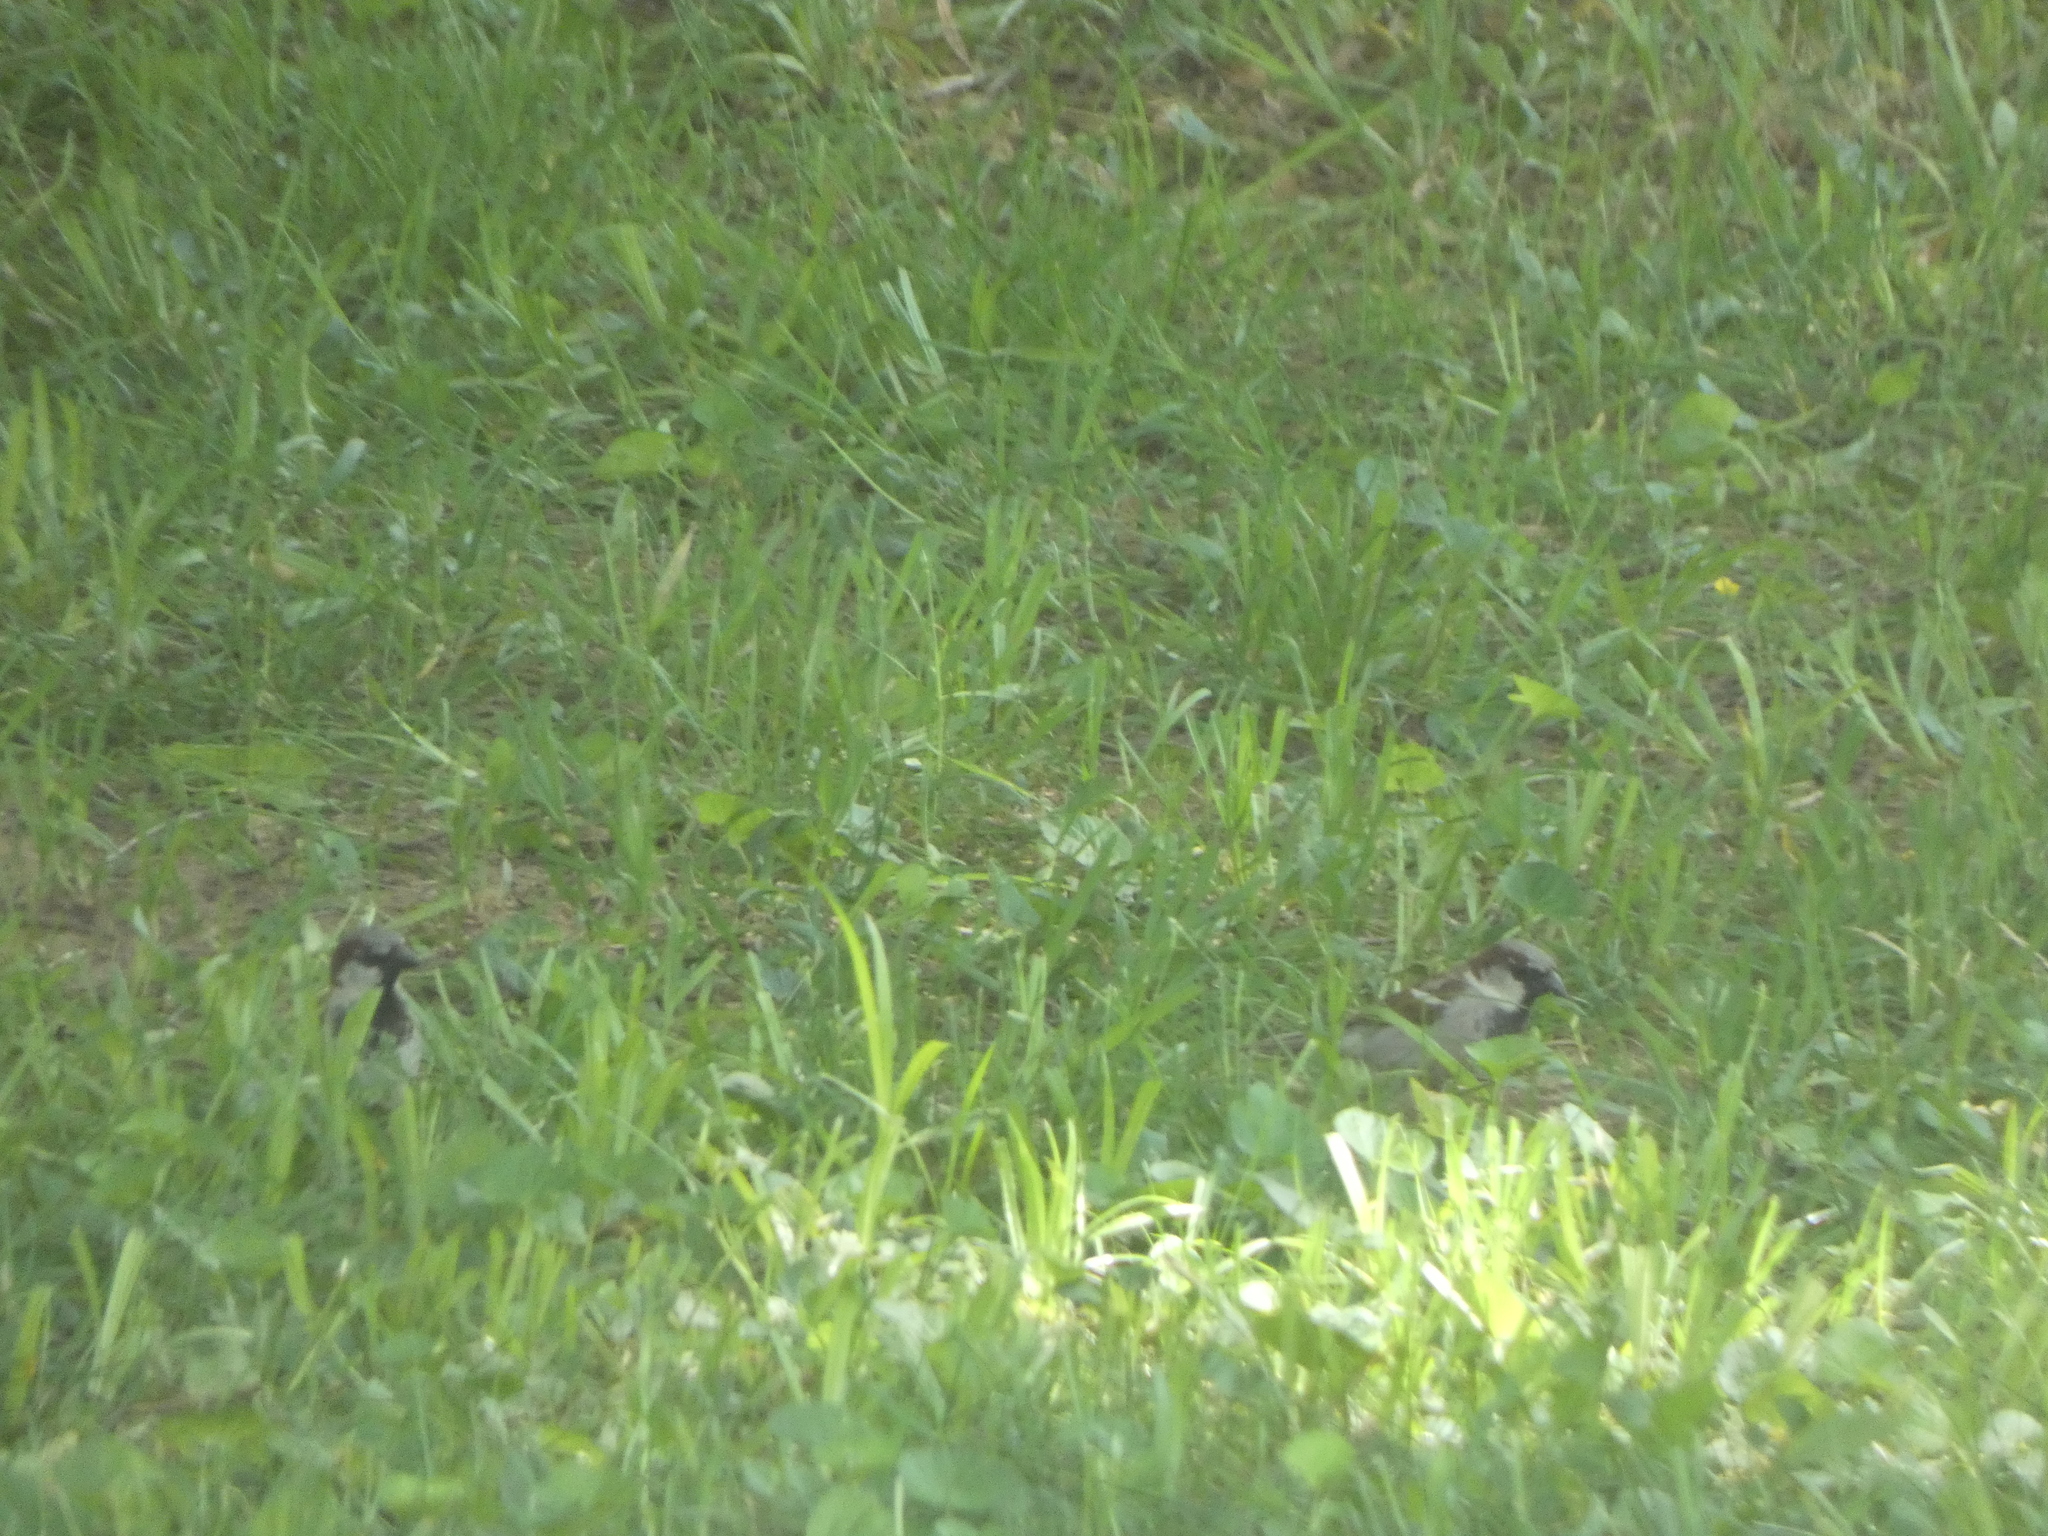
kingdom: Animalia
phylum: Chordata
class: Aves
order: Passeriformes
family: Passeridae
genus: Passer
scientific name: Passer domesticus
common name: House sparrow
